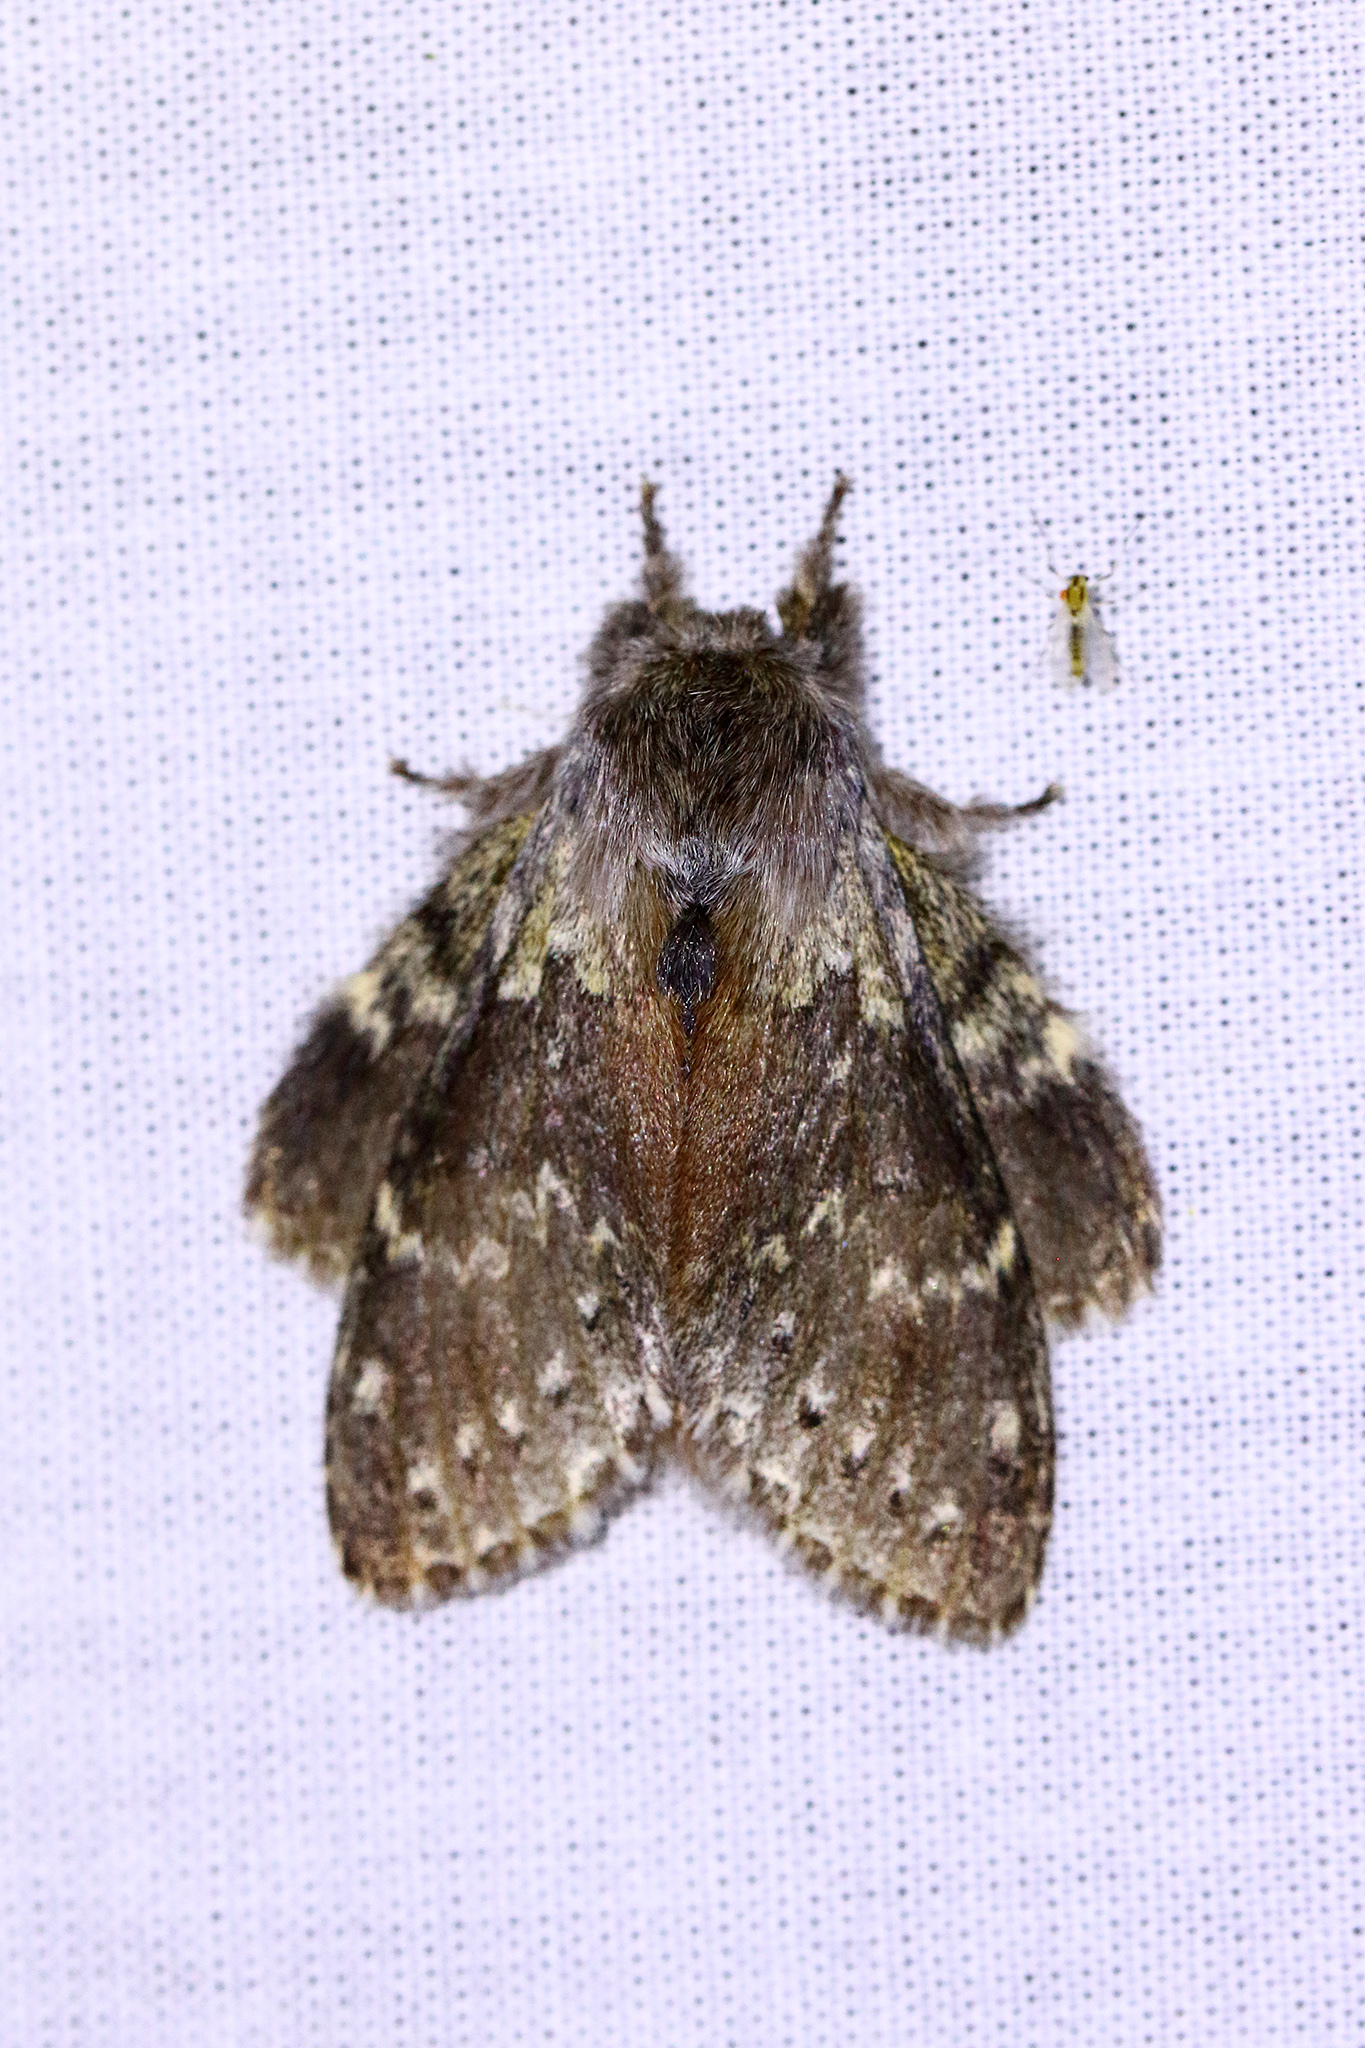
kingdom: Animalia
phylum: Arthropoda
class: Insecta
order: Lepidoptera
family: Notodontidae
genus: Stauropus
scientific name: Stauropus fagi
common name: Lobster moth
